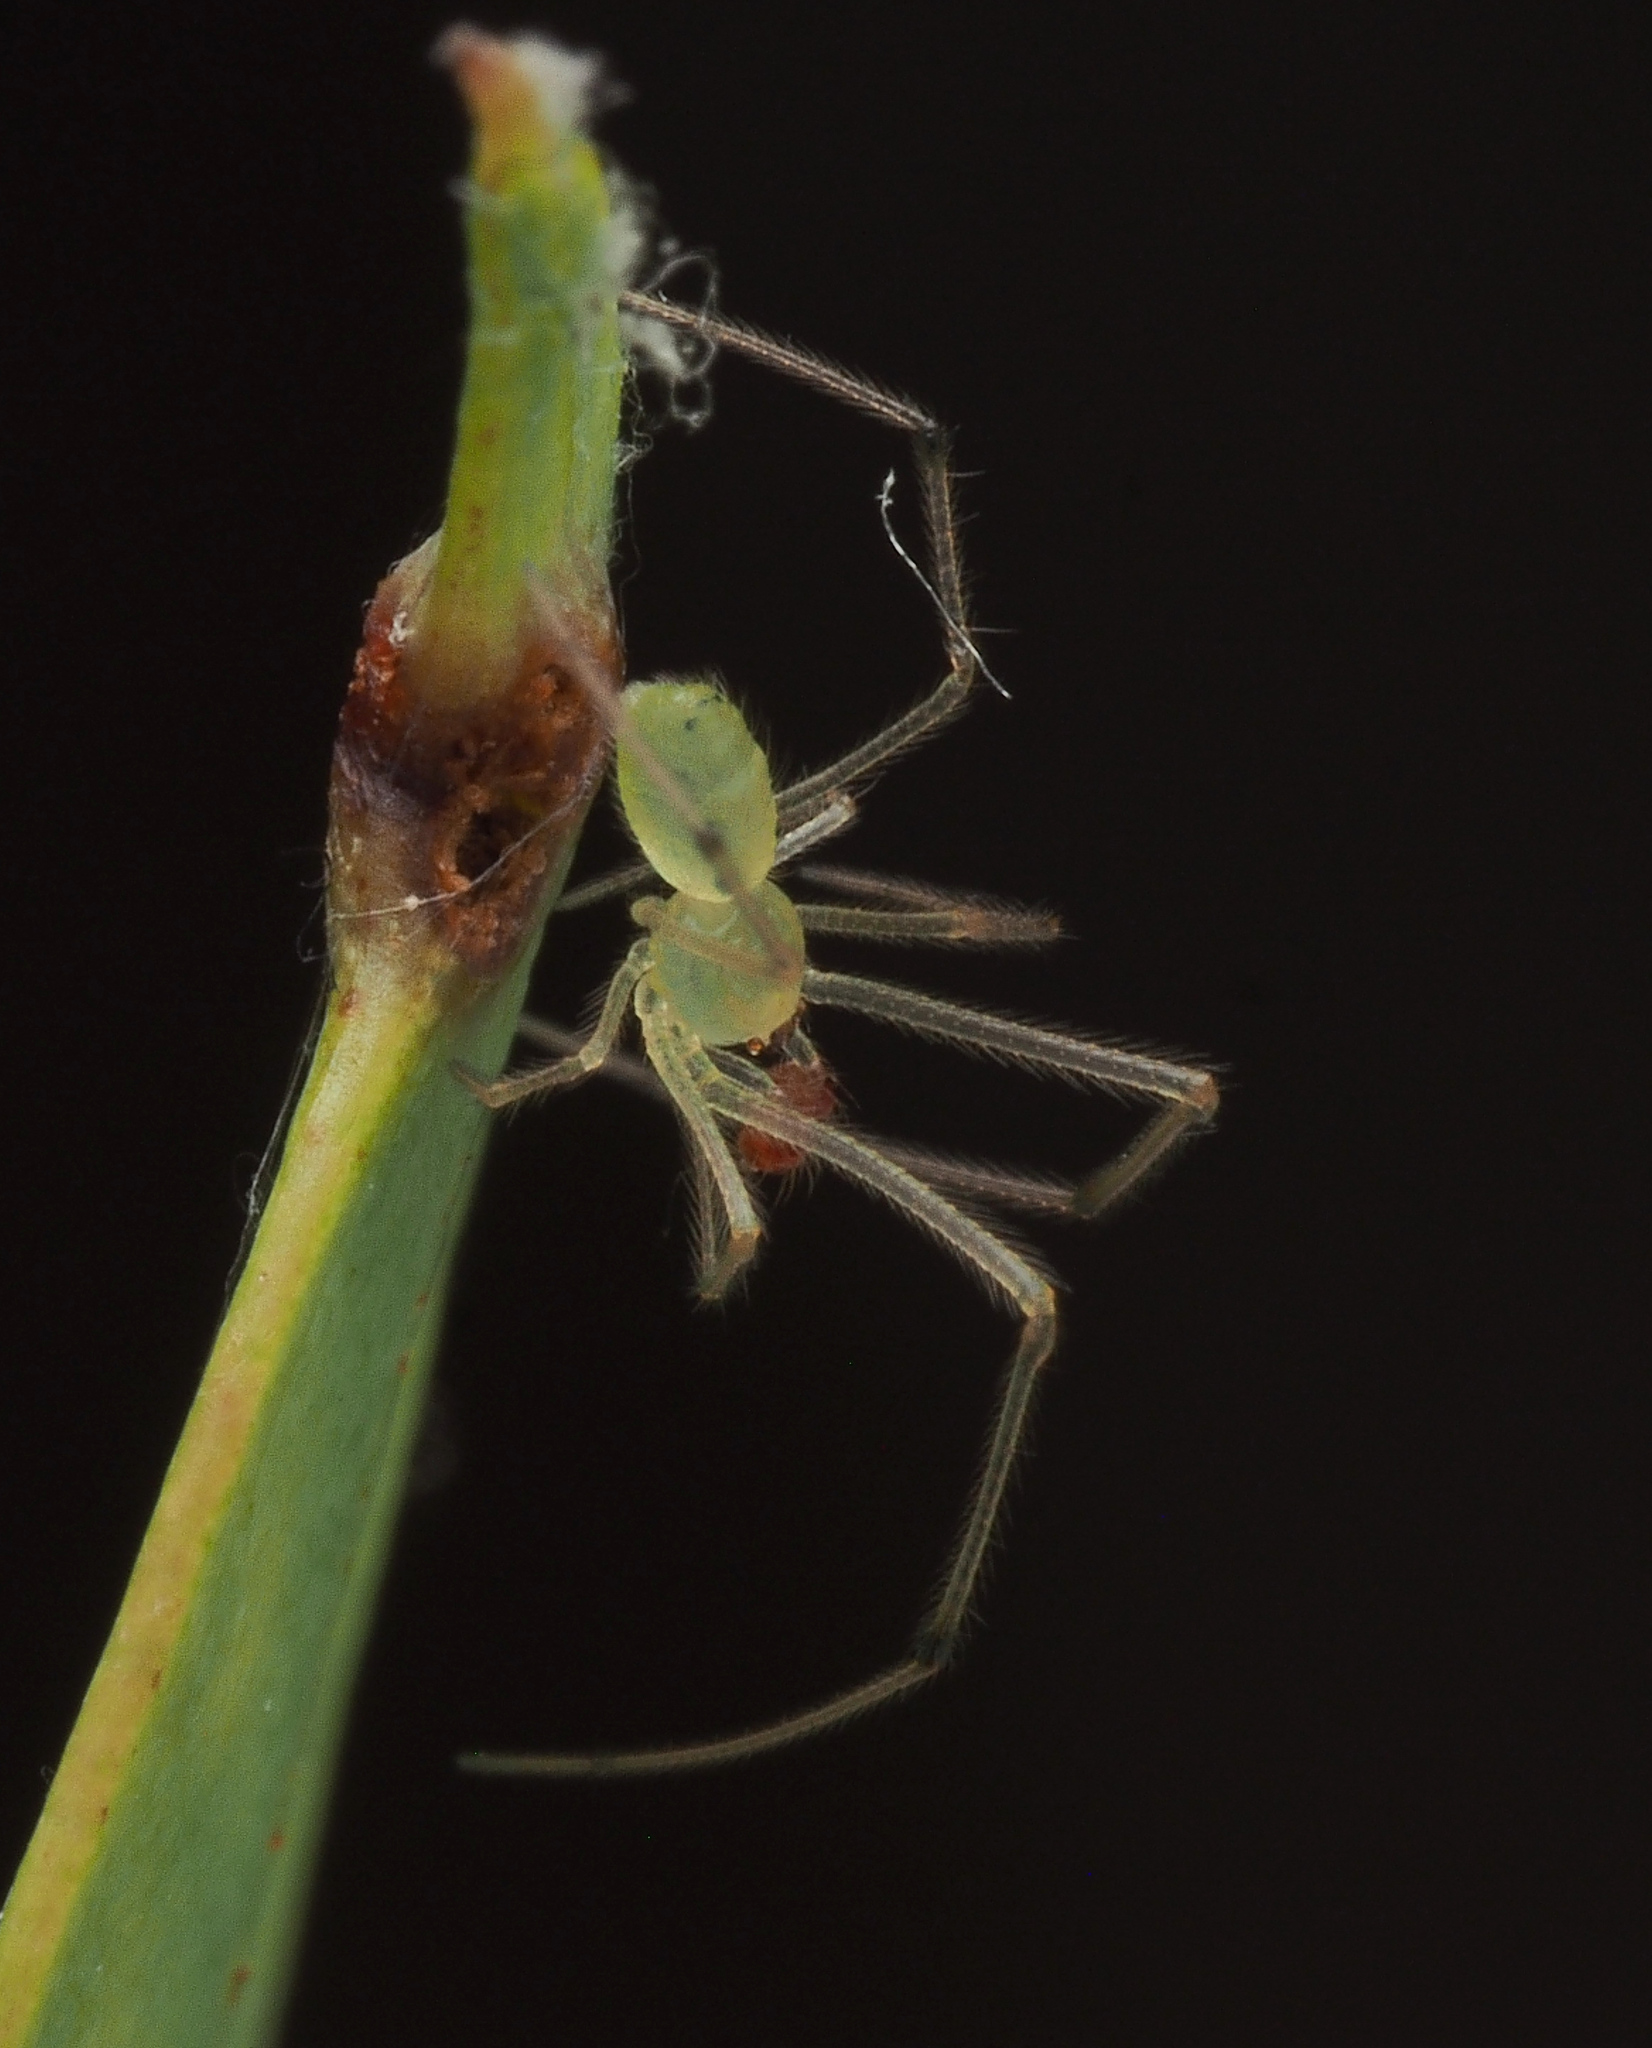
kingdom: Animalia
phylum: Arthropoda
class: Arachnida
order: Araneae
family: Theridiidae
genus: Chrysso
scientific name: Chrysso
